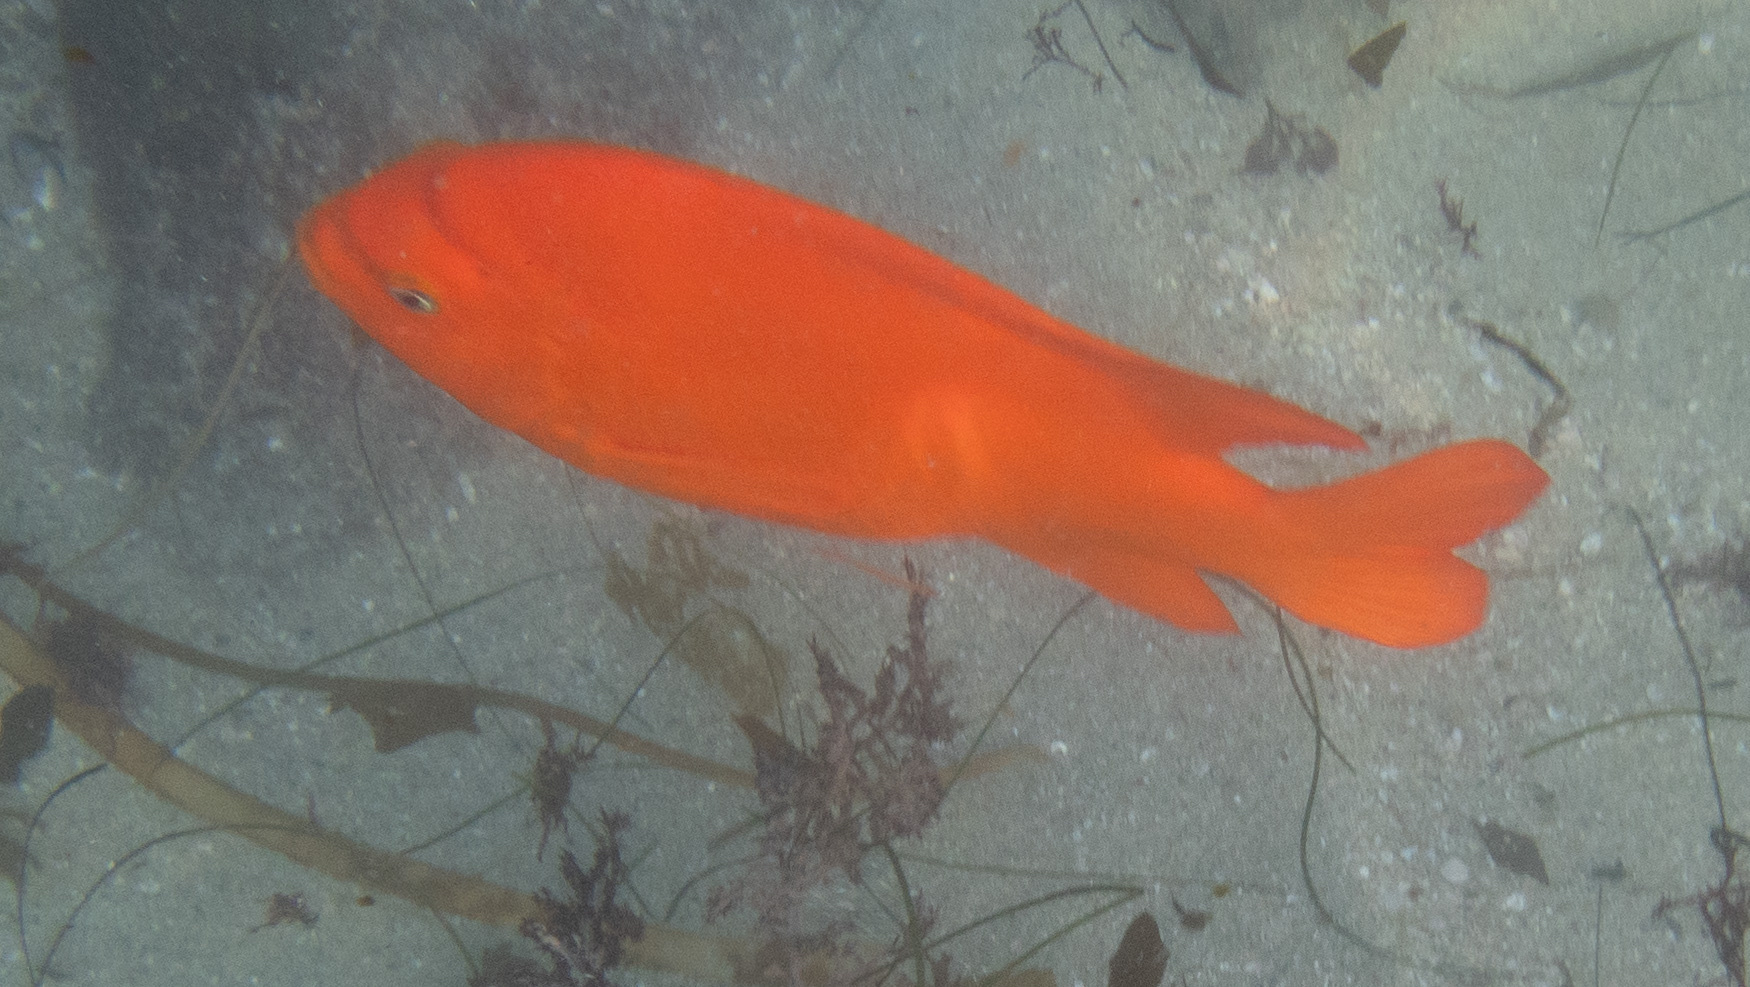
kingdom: Animalia
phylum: Chordata
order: Perciformes
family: Pomacentridae
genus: Hypsypops
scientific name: Hypsypops rubicundus
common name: Garibaldi
